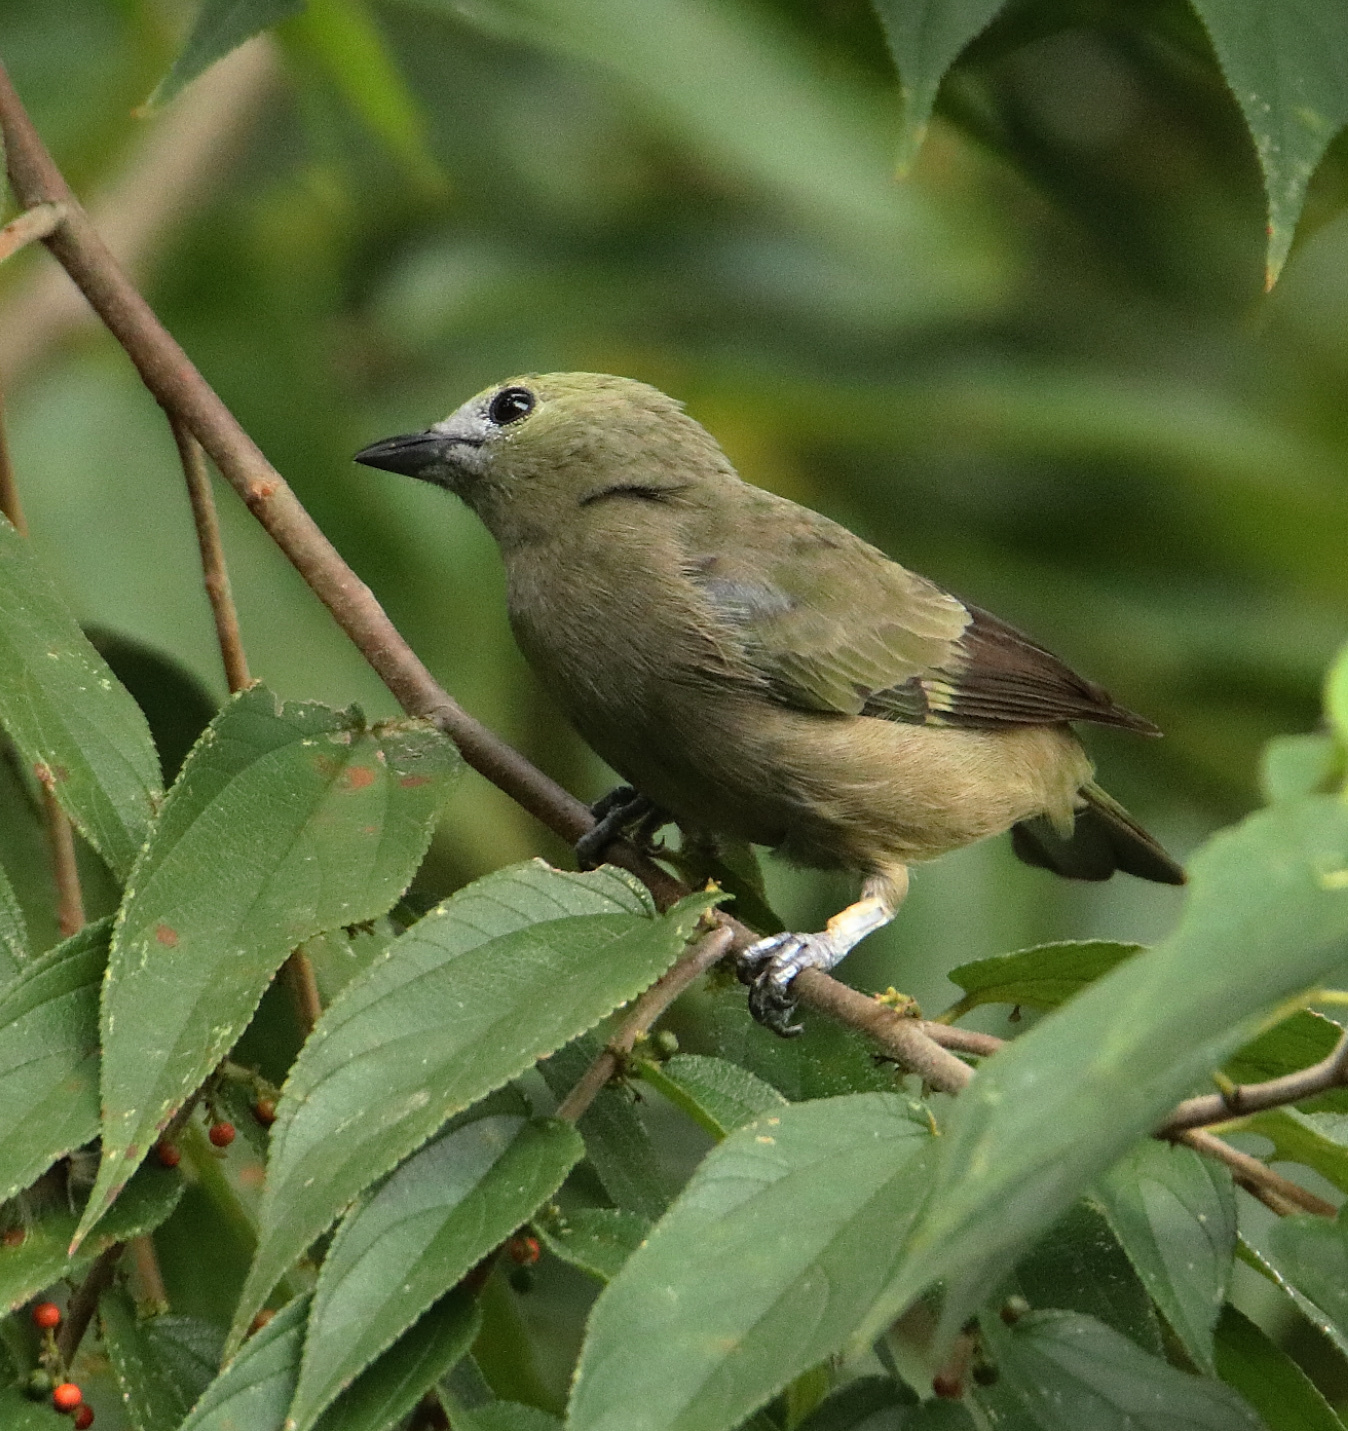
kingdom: Animalia
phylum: Chordata
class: Aves
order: Passeriformes
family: Thraupidae
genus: Thraupis
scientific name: Thraupis palmarum
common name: Palm tanager
